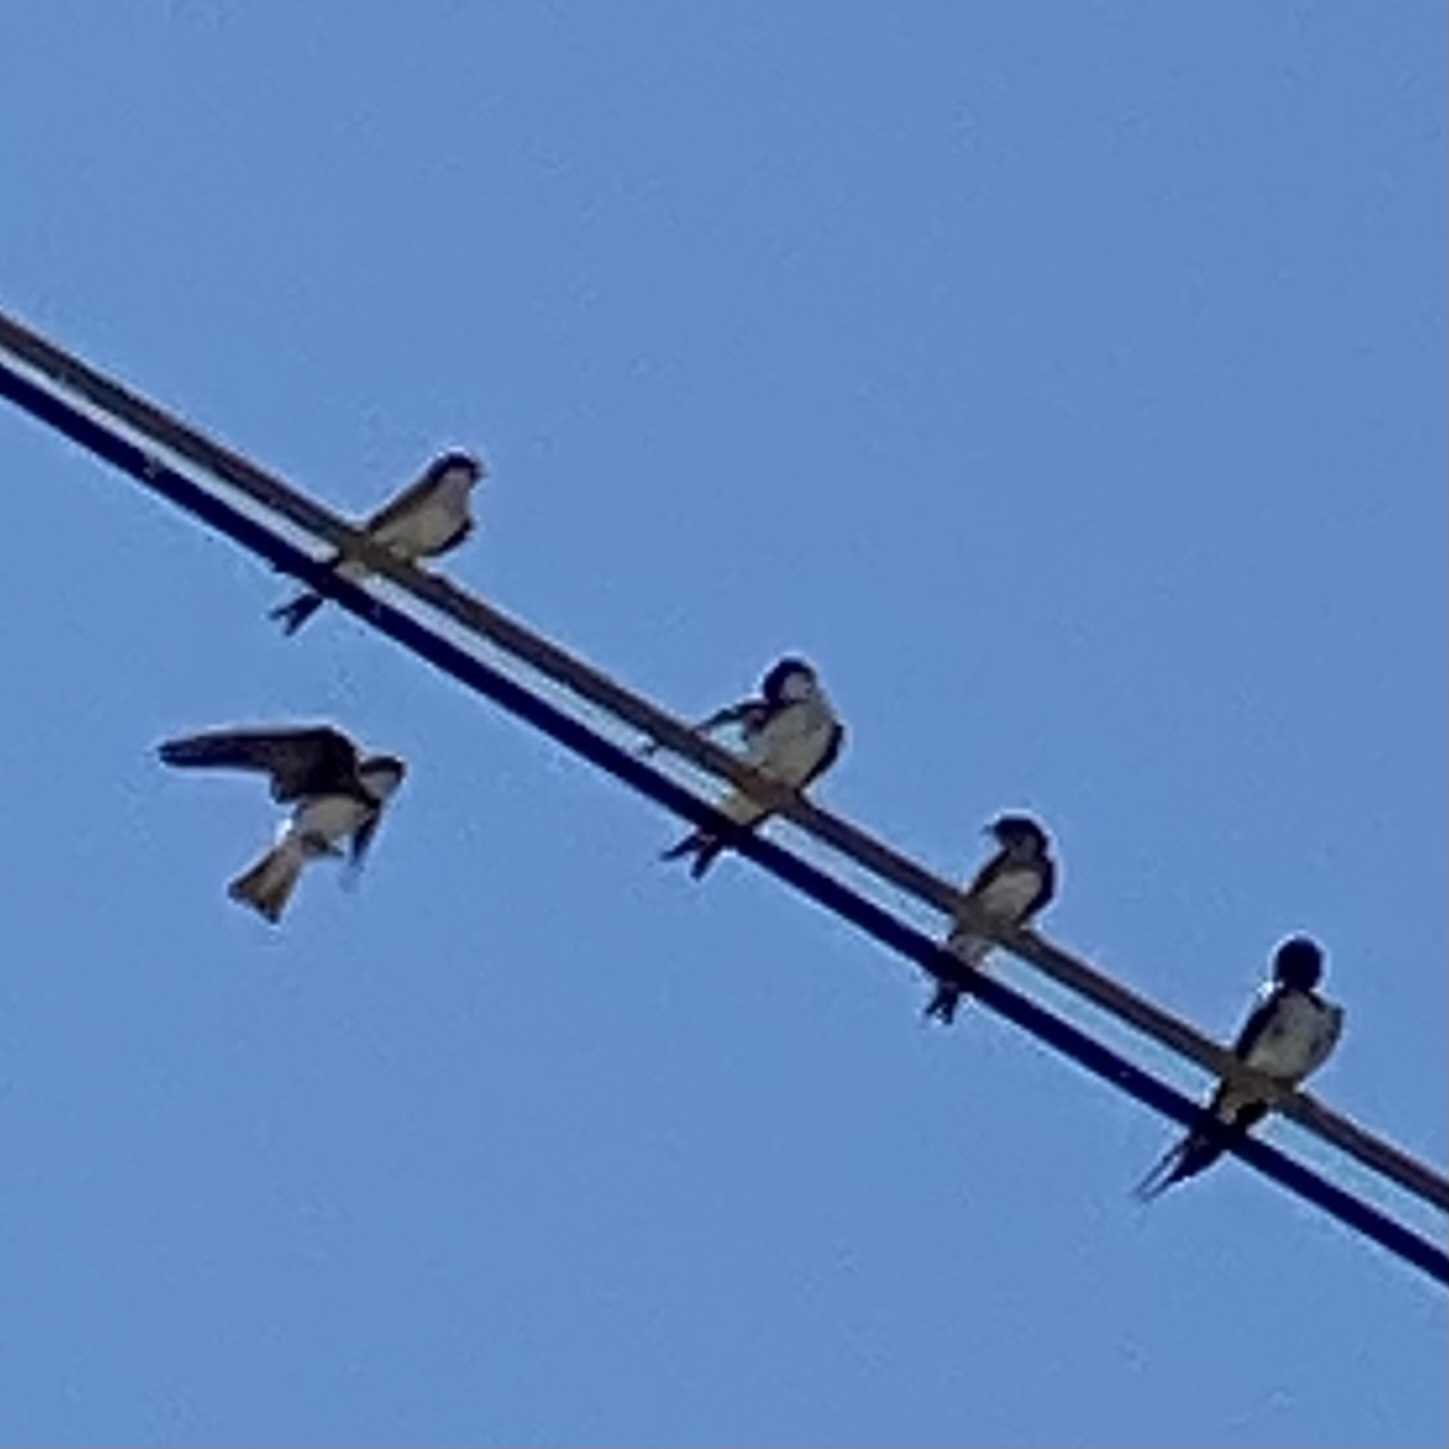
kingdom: Animalia
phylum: Chordata
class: Aves
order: Passeriformes
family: Hirundinidae
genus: Delichon
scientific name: Delichon urbicum
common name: Common house martin
